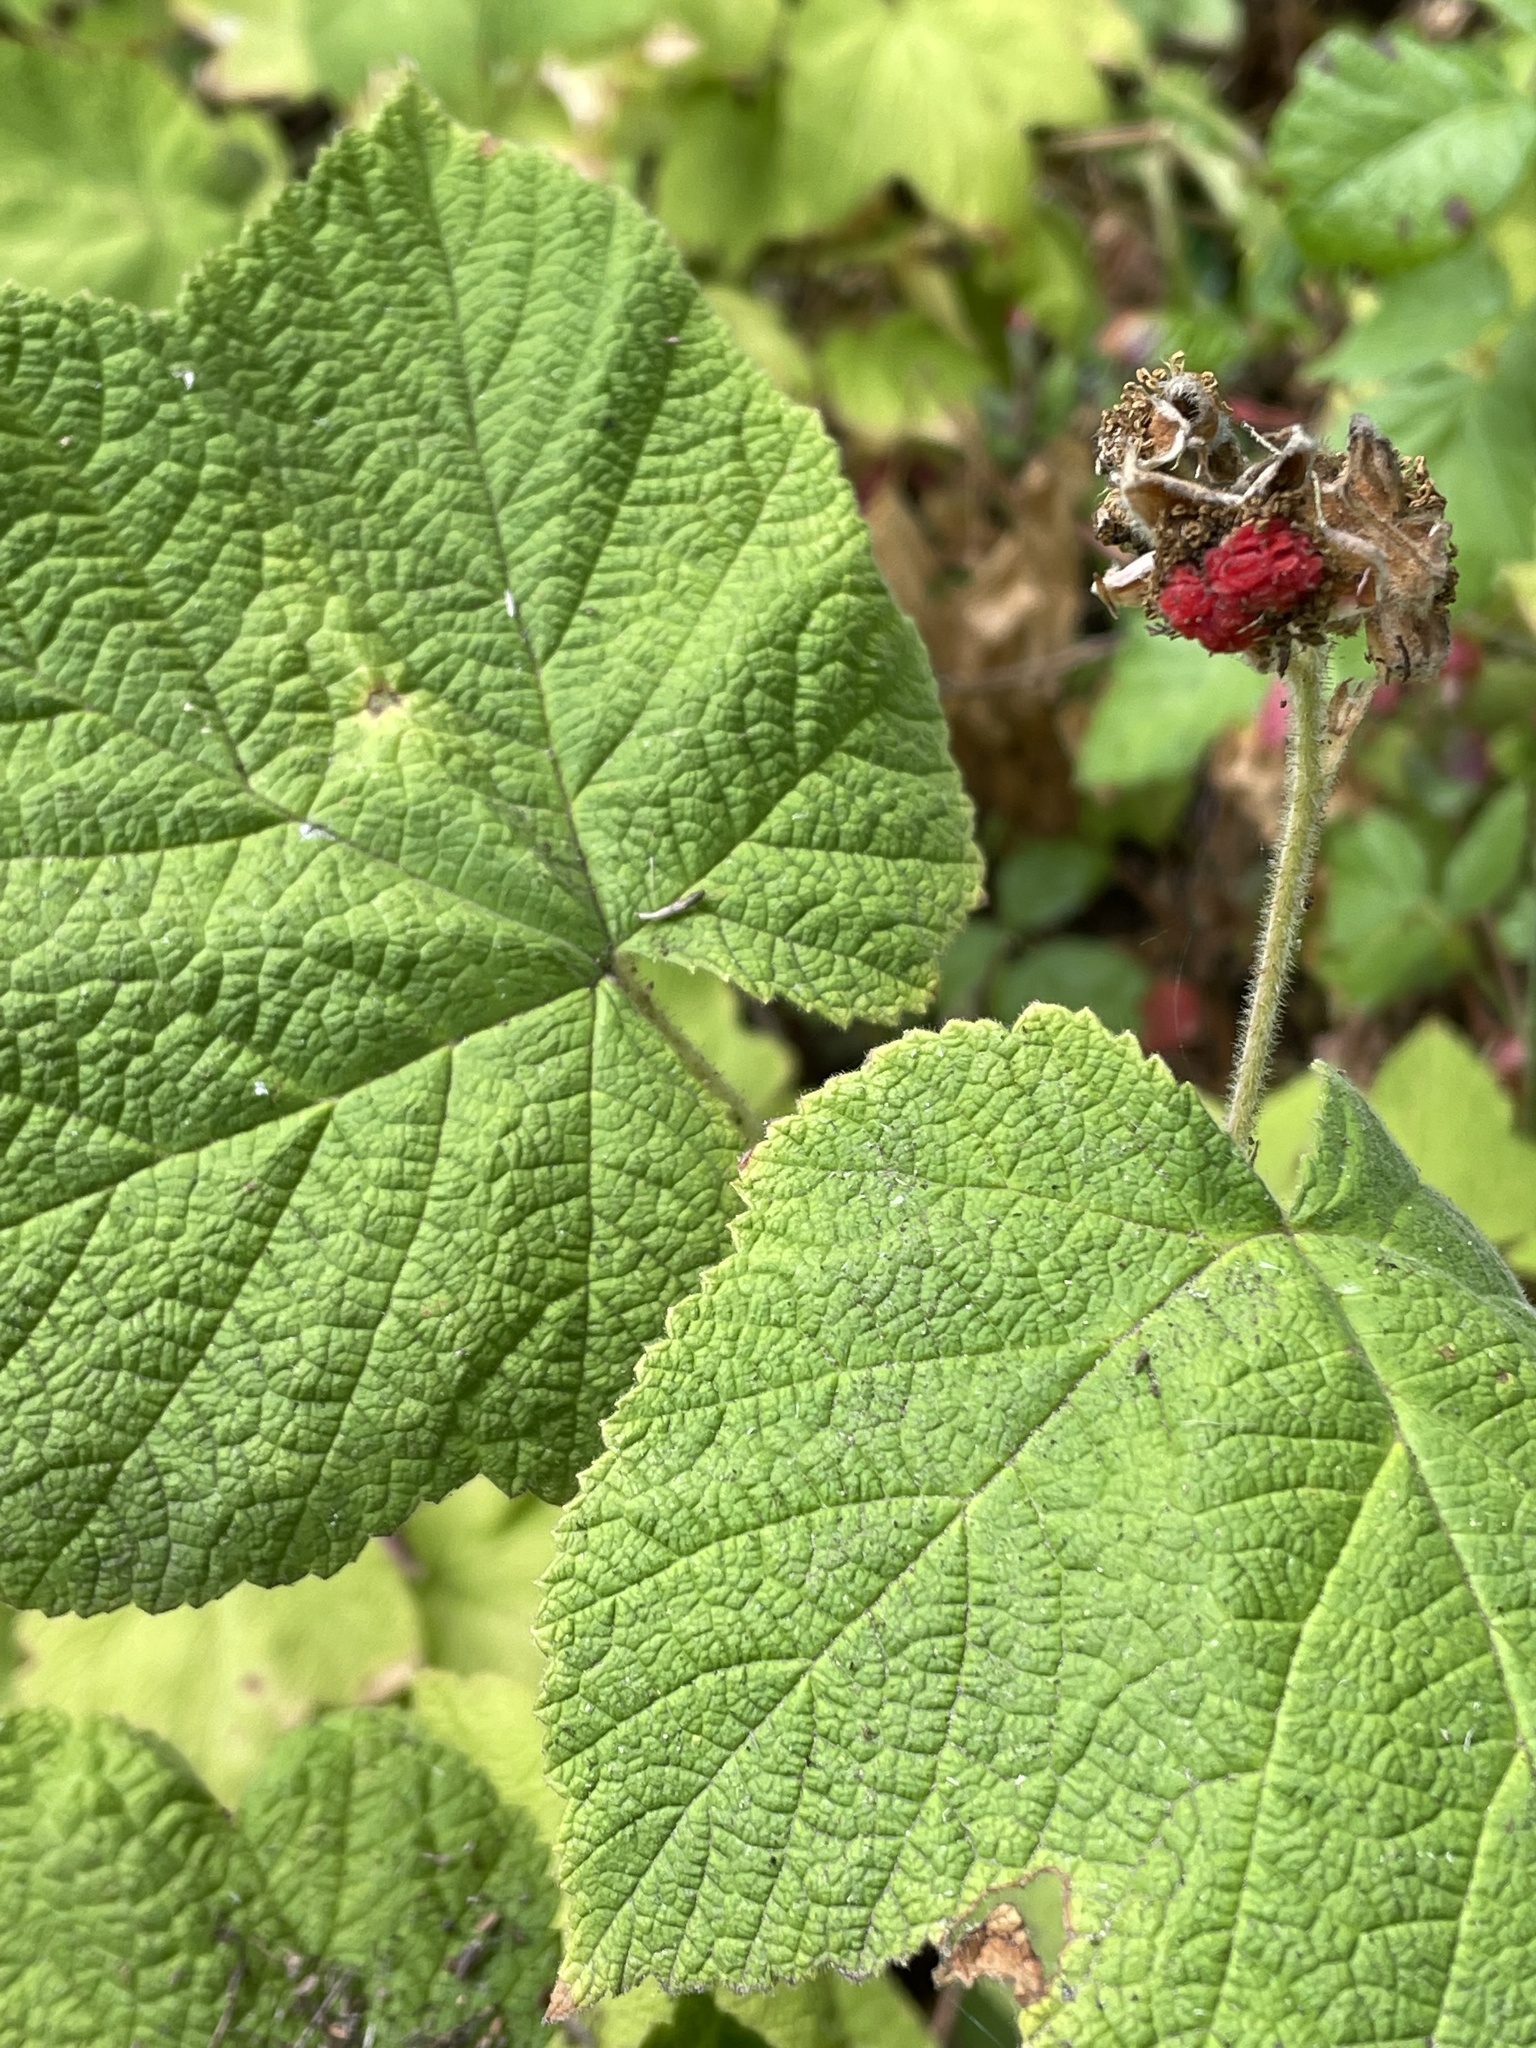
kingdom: Plantae
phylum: Tracheophyta
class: Magnoliopsida
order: Rosales
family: Rosaceae
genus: Rubus
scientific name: Rubus parviflorus
